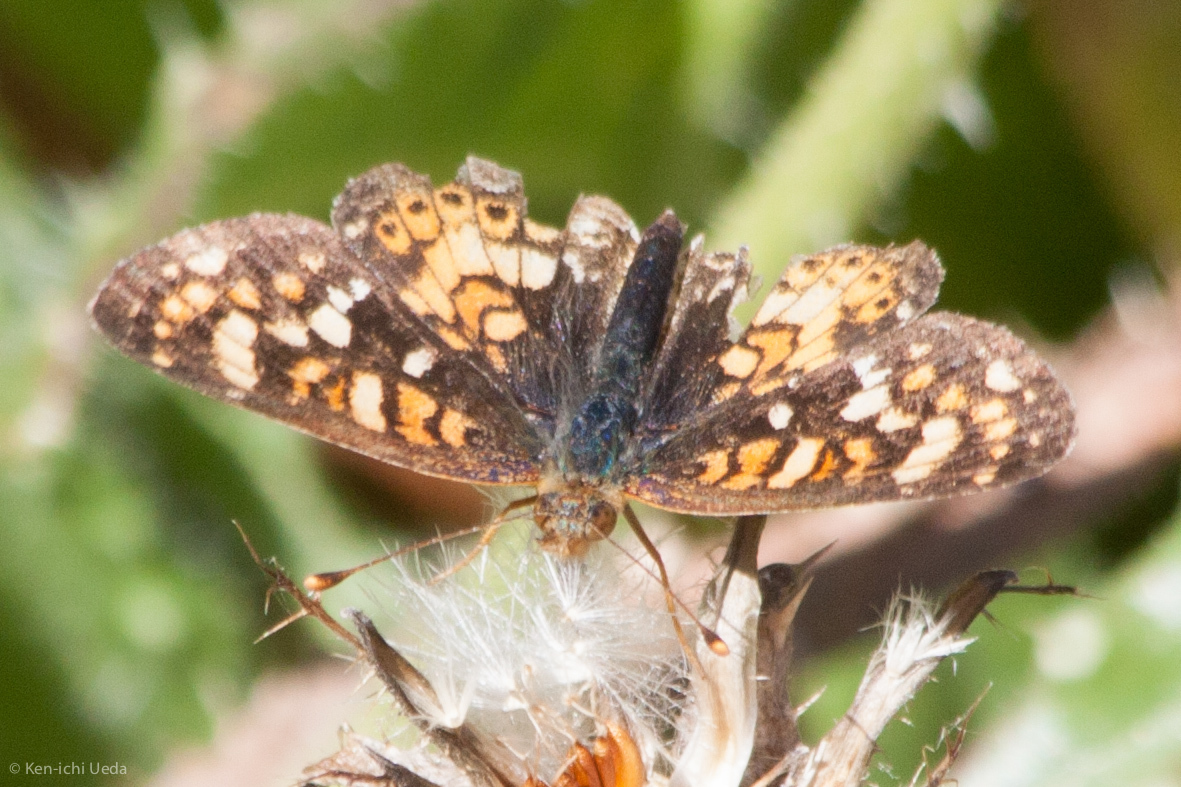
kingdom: Animalia
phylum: Arthropoda
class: Insecta
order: Lepidoptera
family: Nymphalidae
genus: Phyciodes
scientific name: Phyciodes tharos
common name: Pearl crescent
